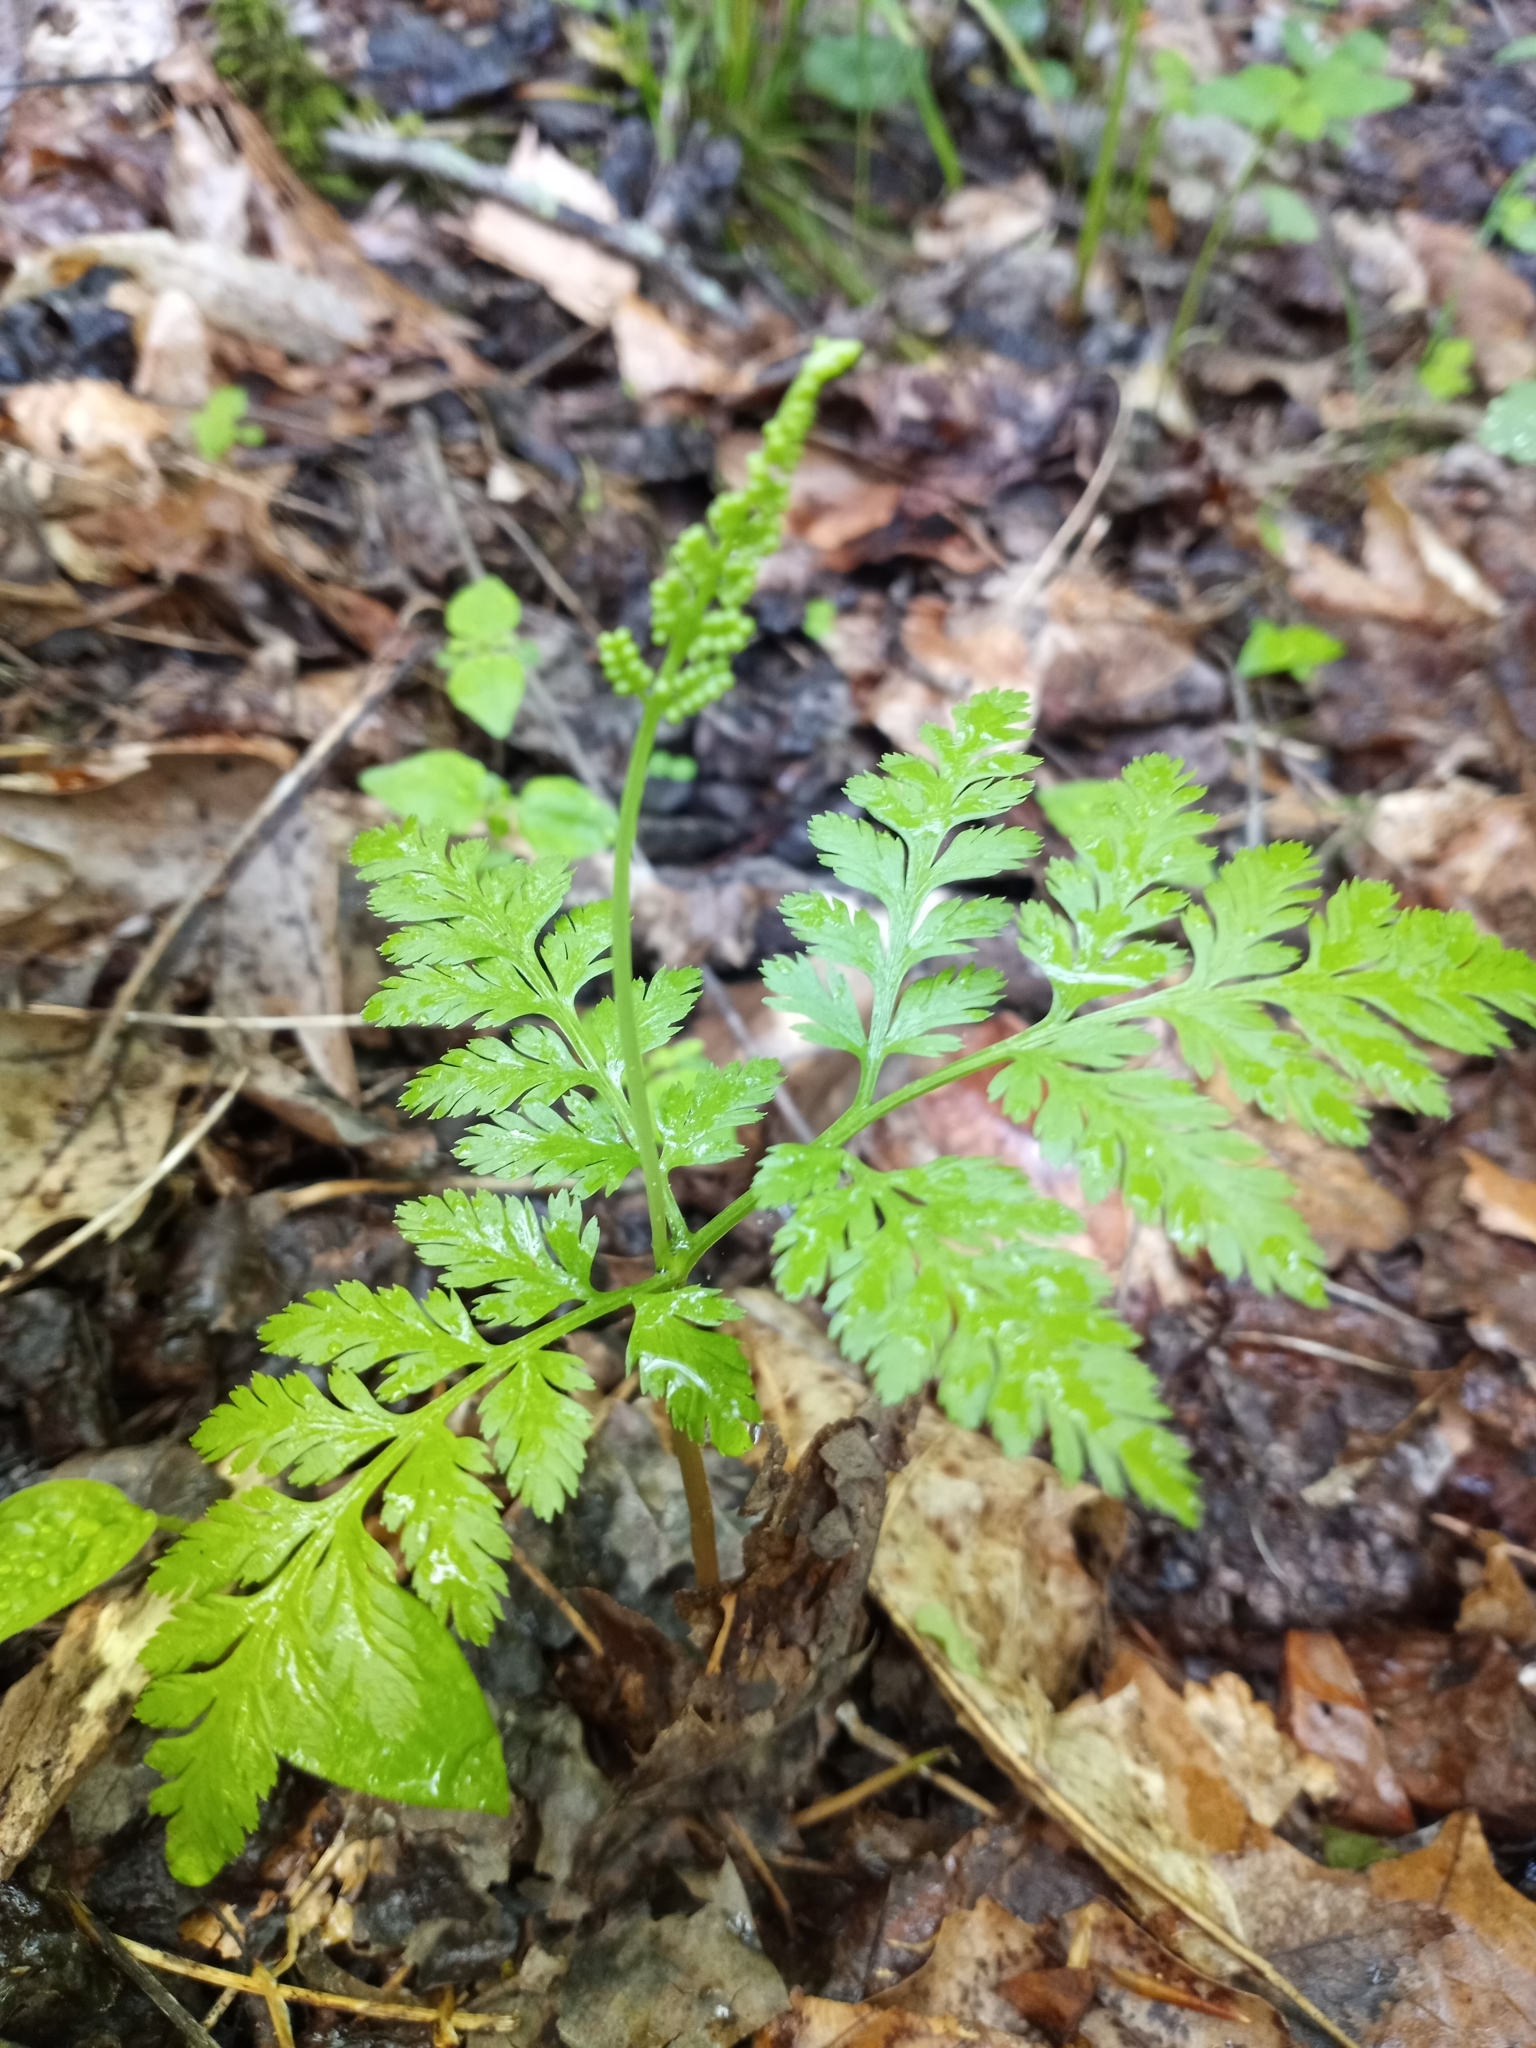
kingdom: Plantae
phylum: Tracheophyta
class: Polypodiopsida
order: Ophioglossales
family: Ophioglossaceae
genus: Botrypus
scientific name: Botrypus virginianus
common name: Common grapefern
